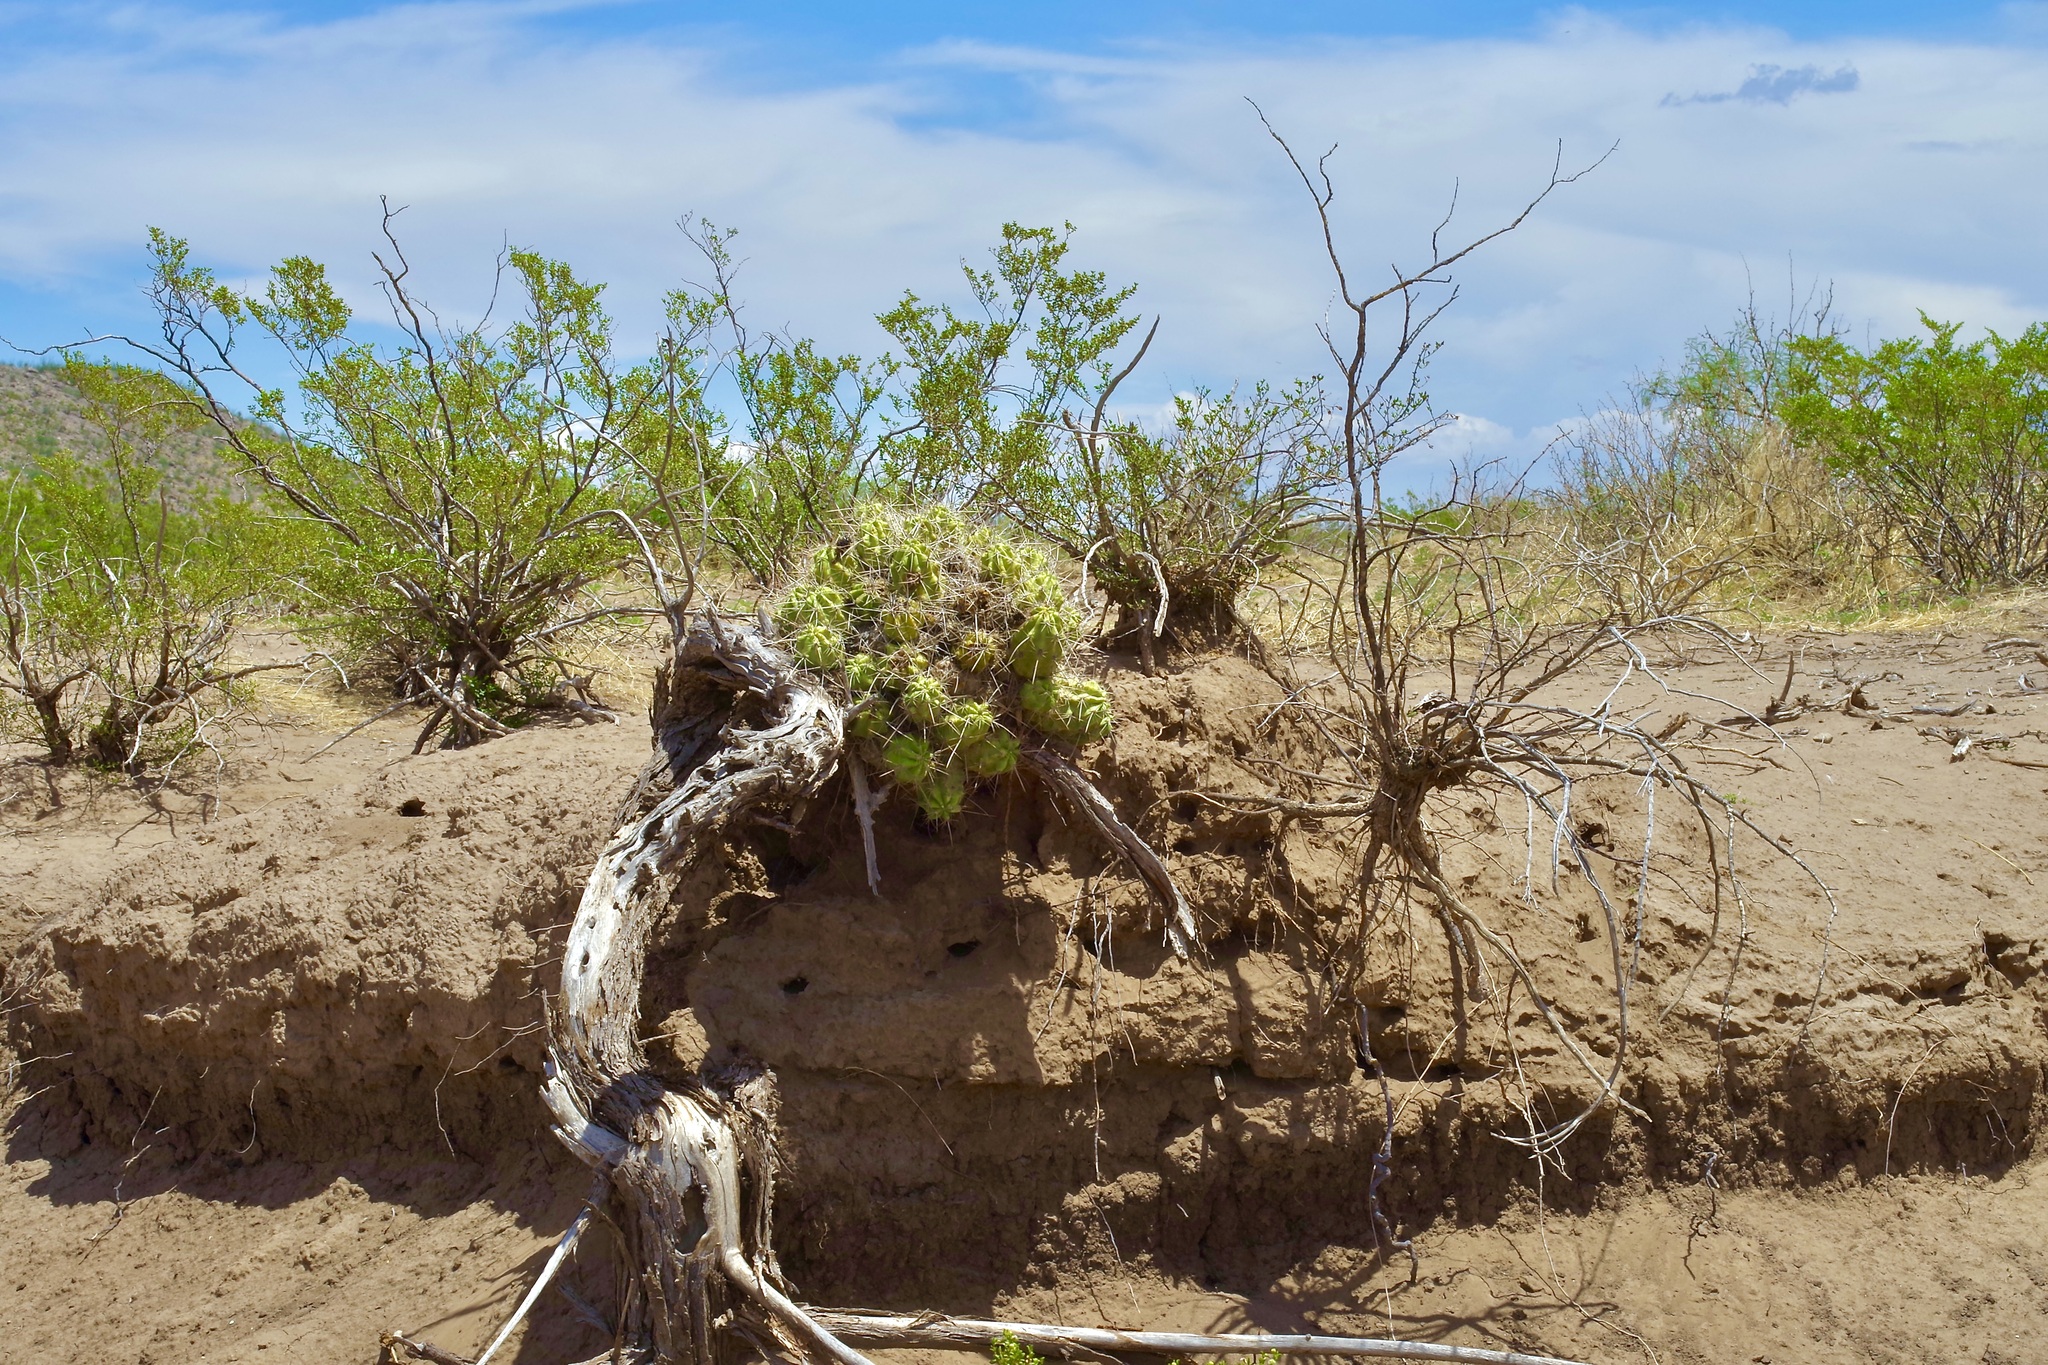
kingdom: Plantae
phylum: Tracheophyta
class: Magnoliopsida
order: Caryophyllales
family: Cactaceae
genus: Echinocereus
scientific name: Echinocereus enneacanthus
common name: Pitaya
